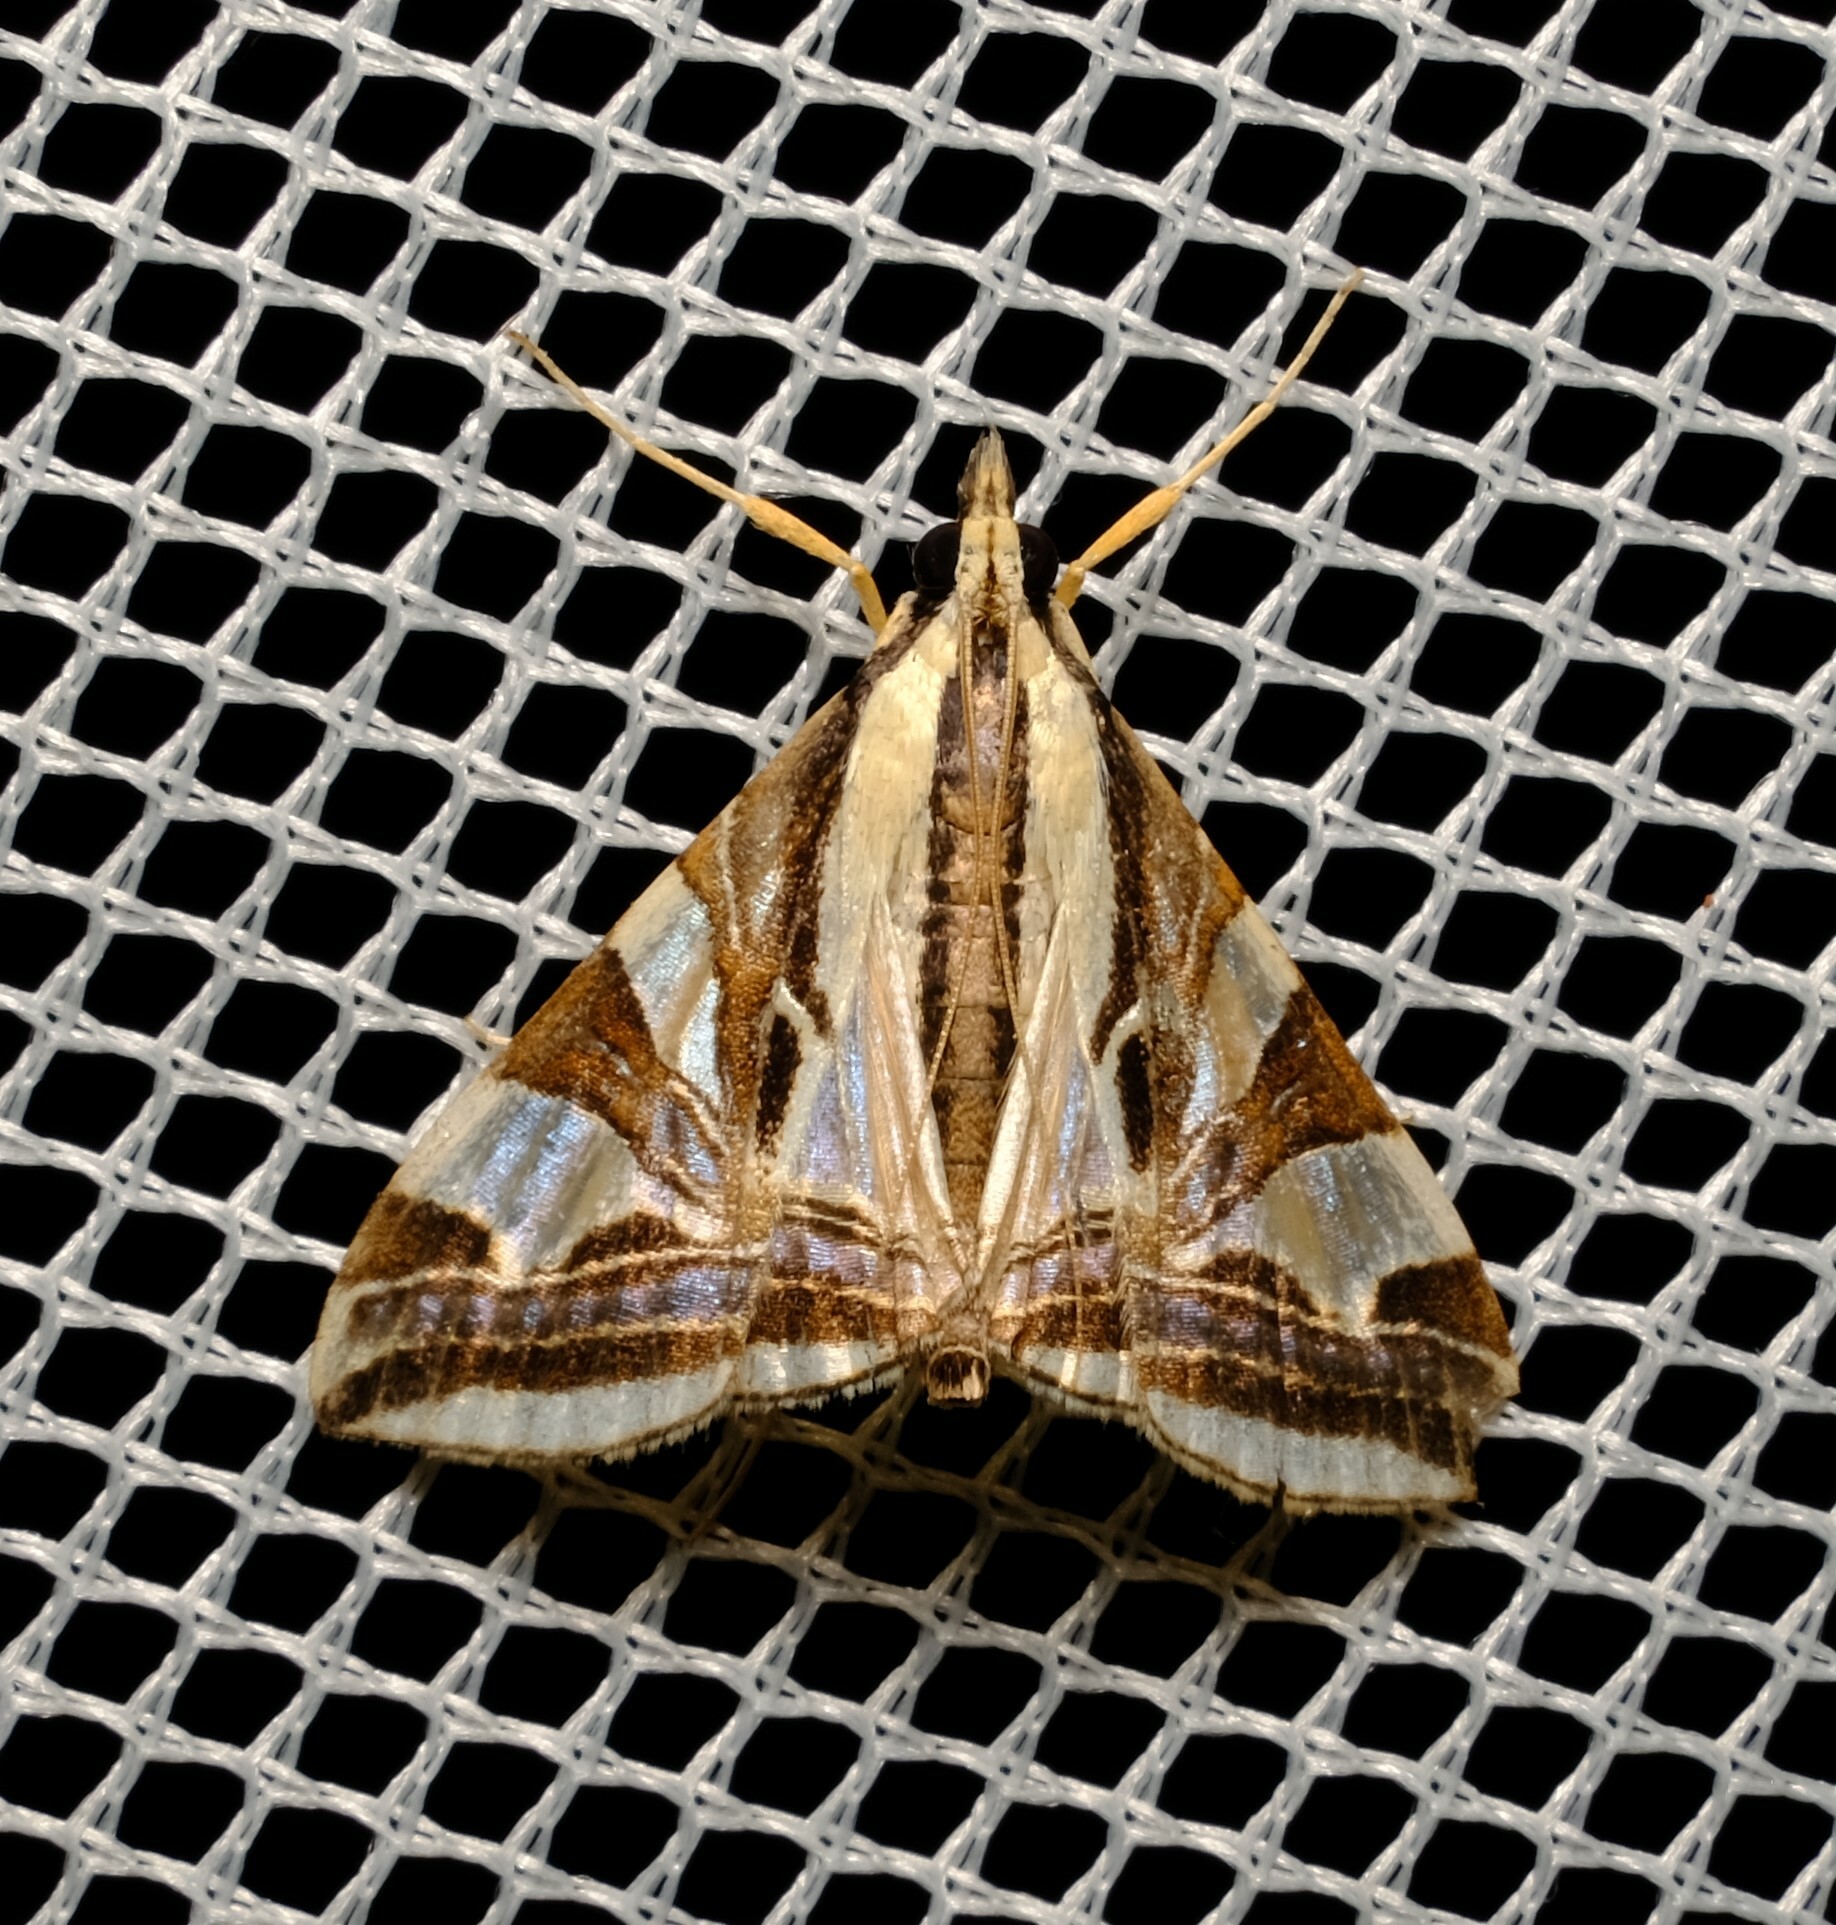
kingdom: Animalia
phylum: Arthropoda
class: Insecta
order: Lepidoptera
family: Crambidae
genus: Agrioglypta
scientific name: Agrioglypta excelsalis
